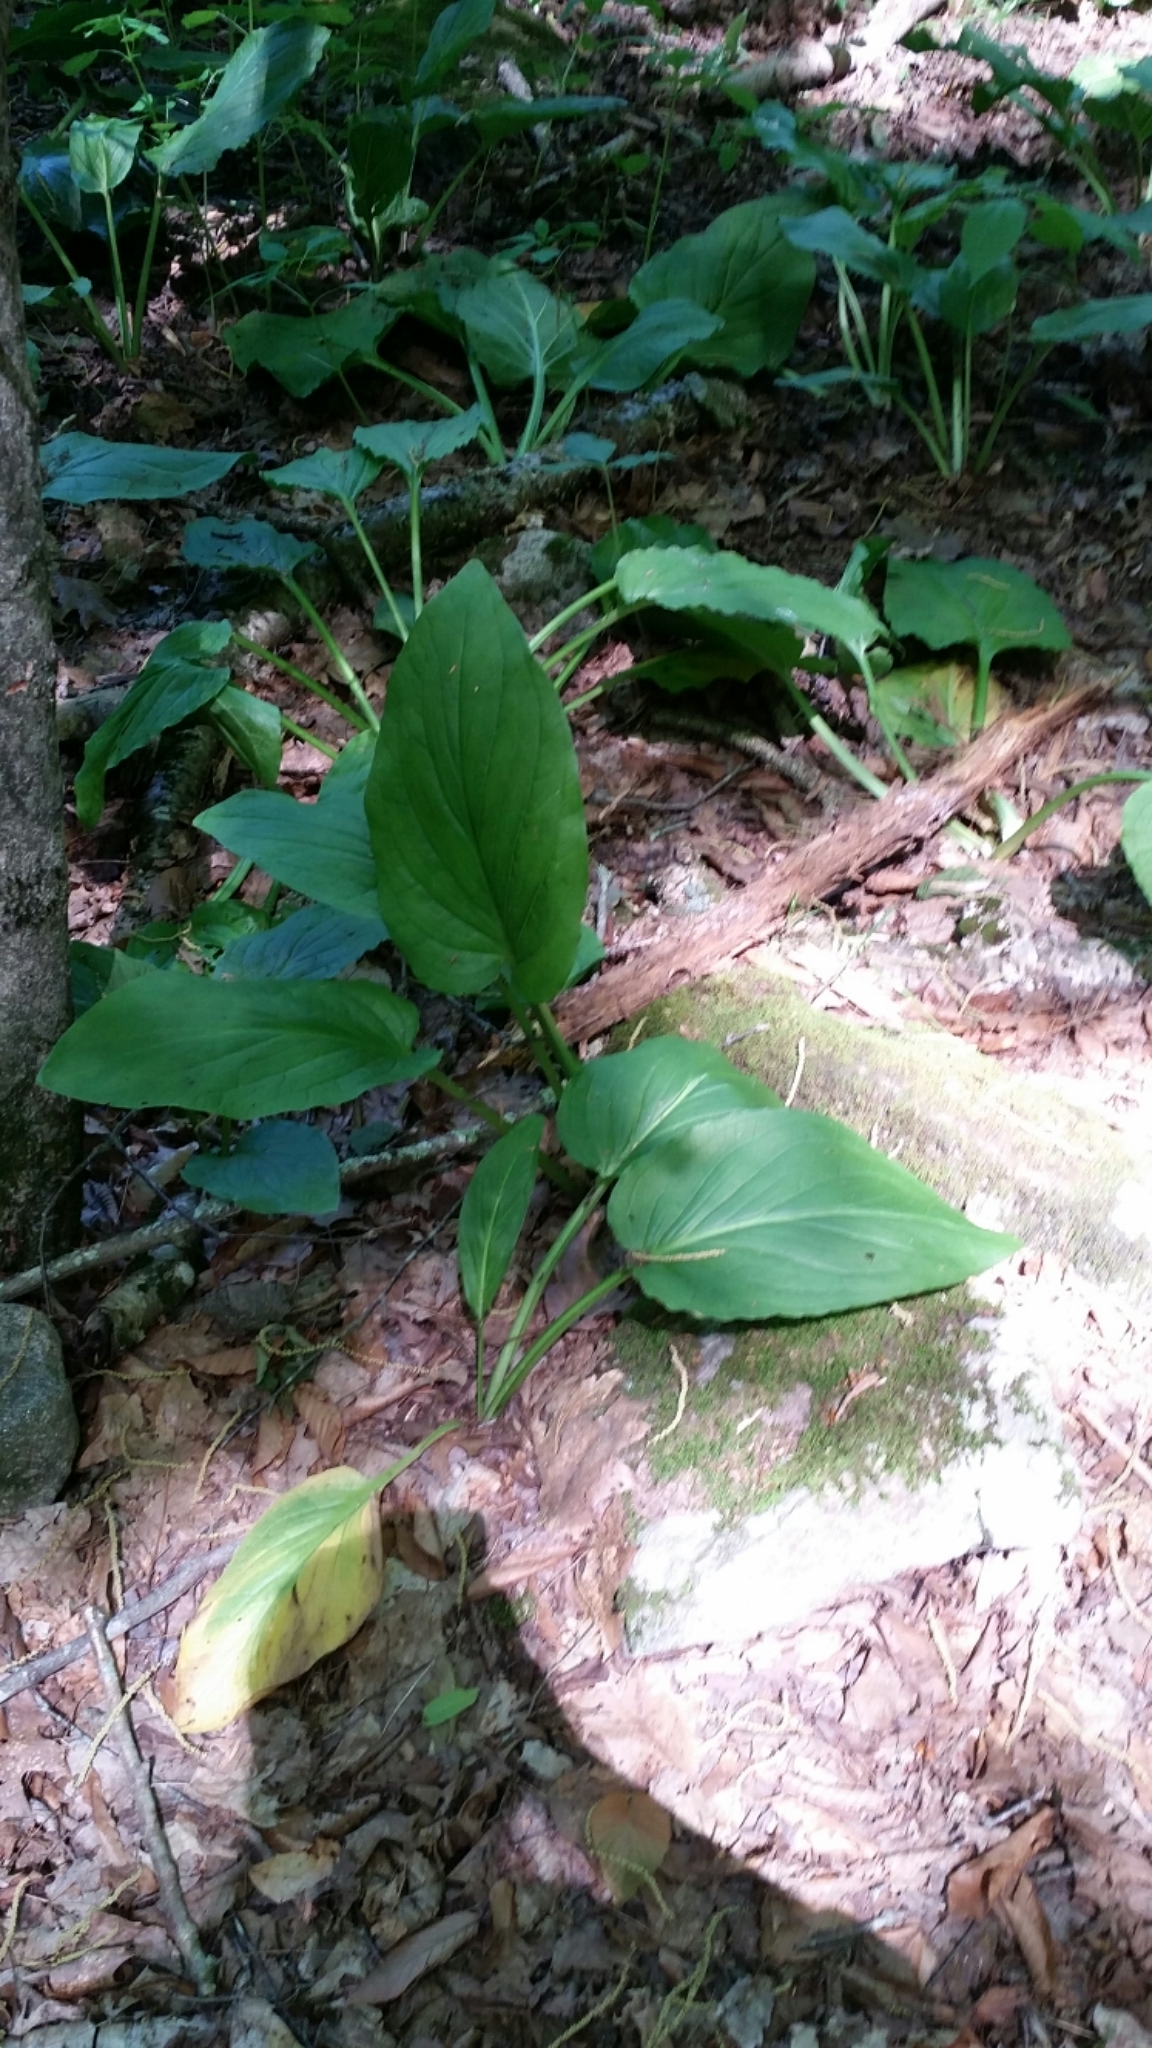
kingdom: Plantae
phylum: Tracheophyta
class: Liliopsida
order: Alismatales
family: Araceae
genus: Symplocarpus
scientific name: Symplocarpus foetidus
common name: Eastern skunk cabbage
